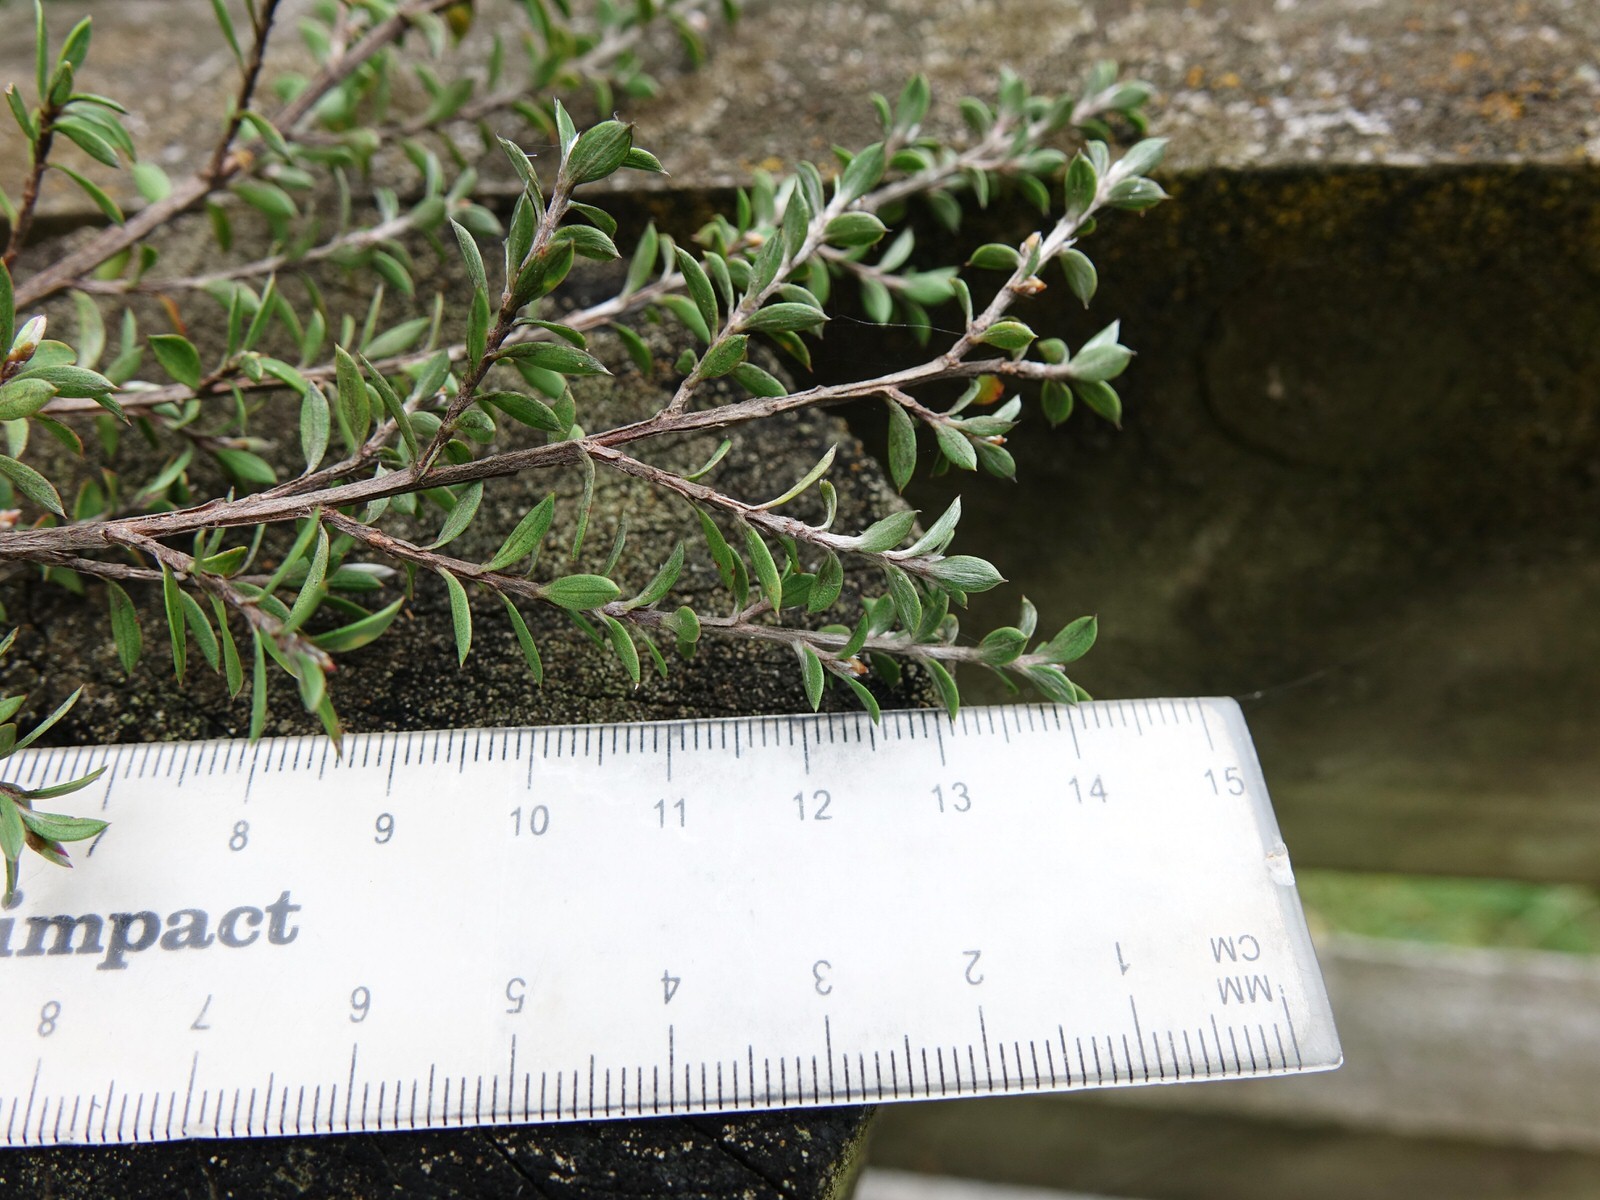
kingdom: Plantae
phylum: Tracheophyta
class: Magnoliopsida
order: Myrtales
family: Myrtaceae
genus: Leptospermum
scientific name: Leptospermum scoparium
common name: Broom tea-tree
